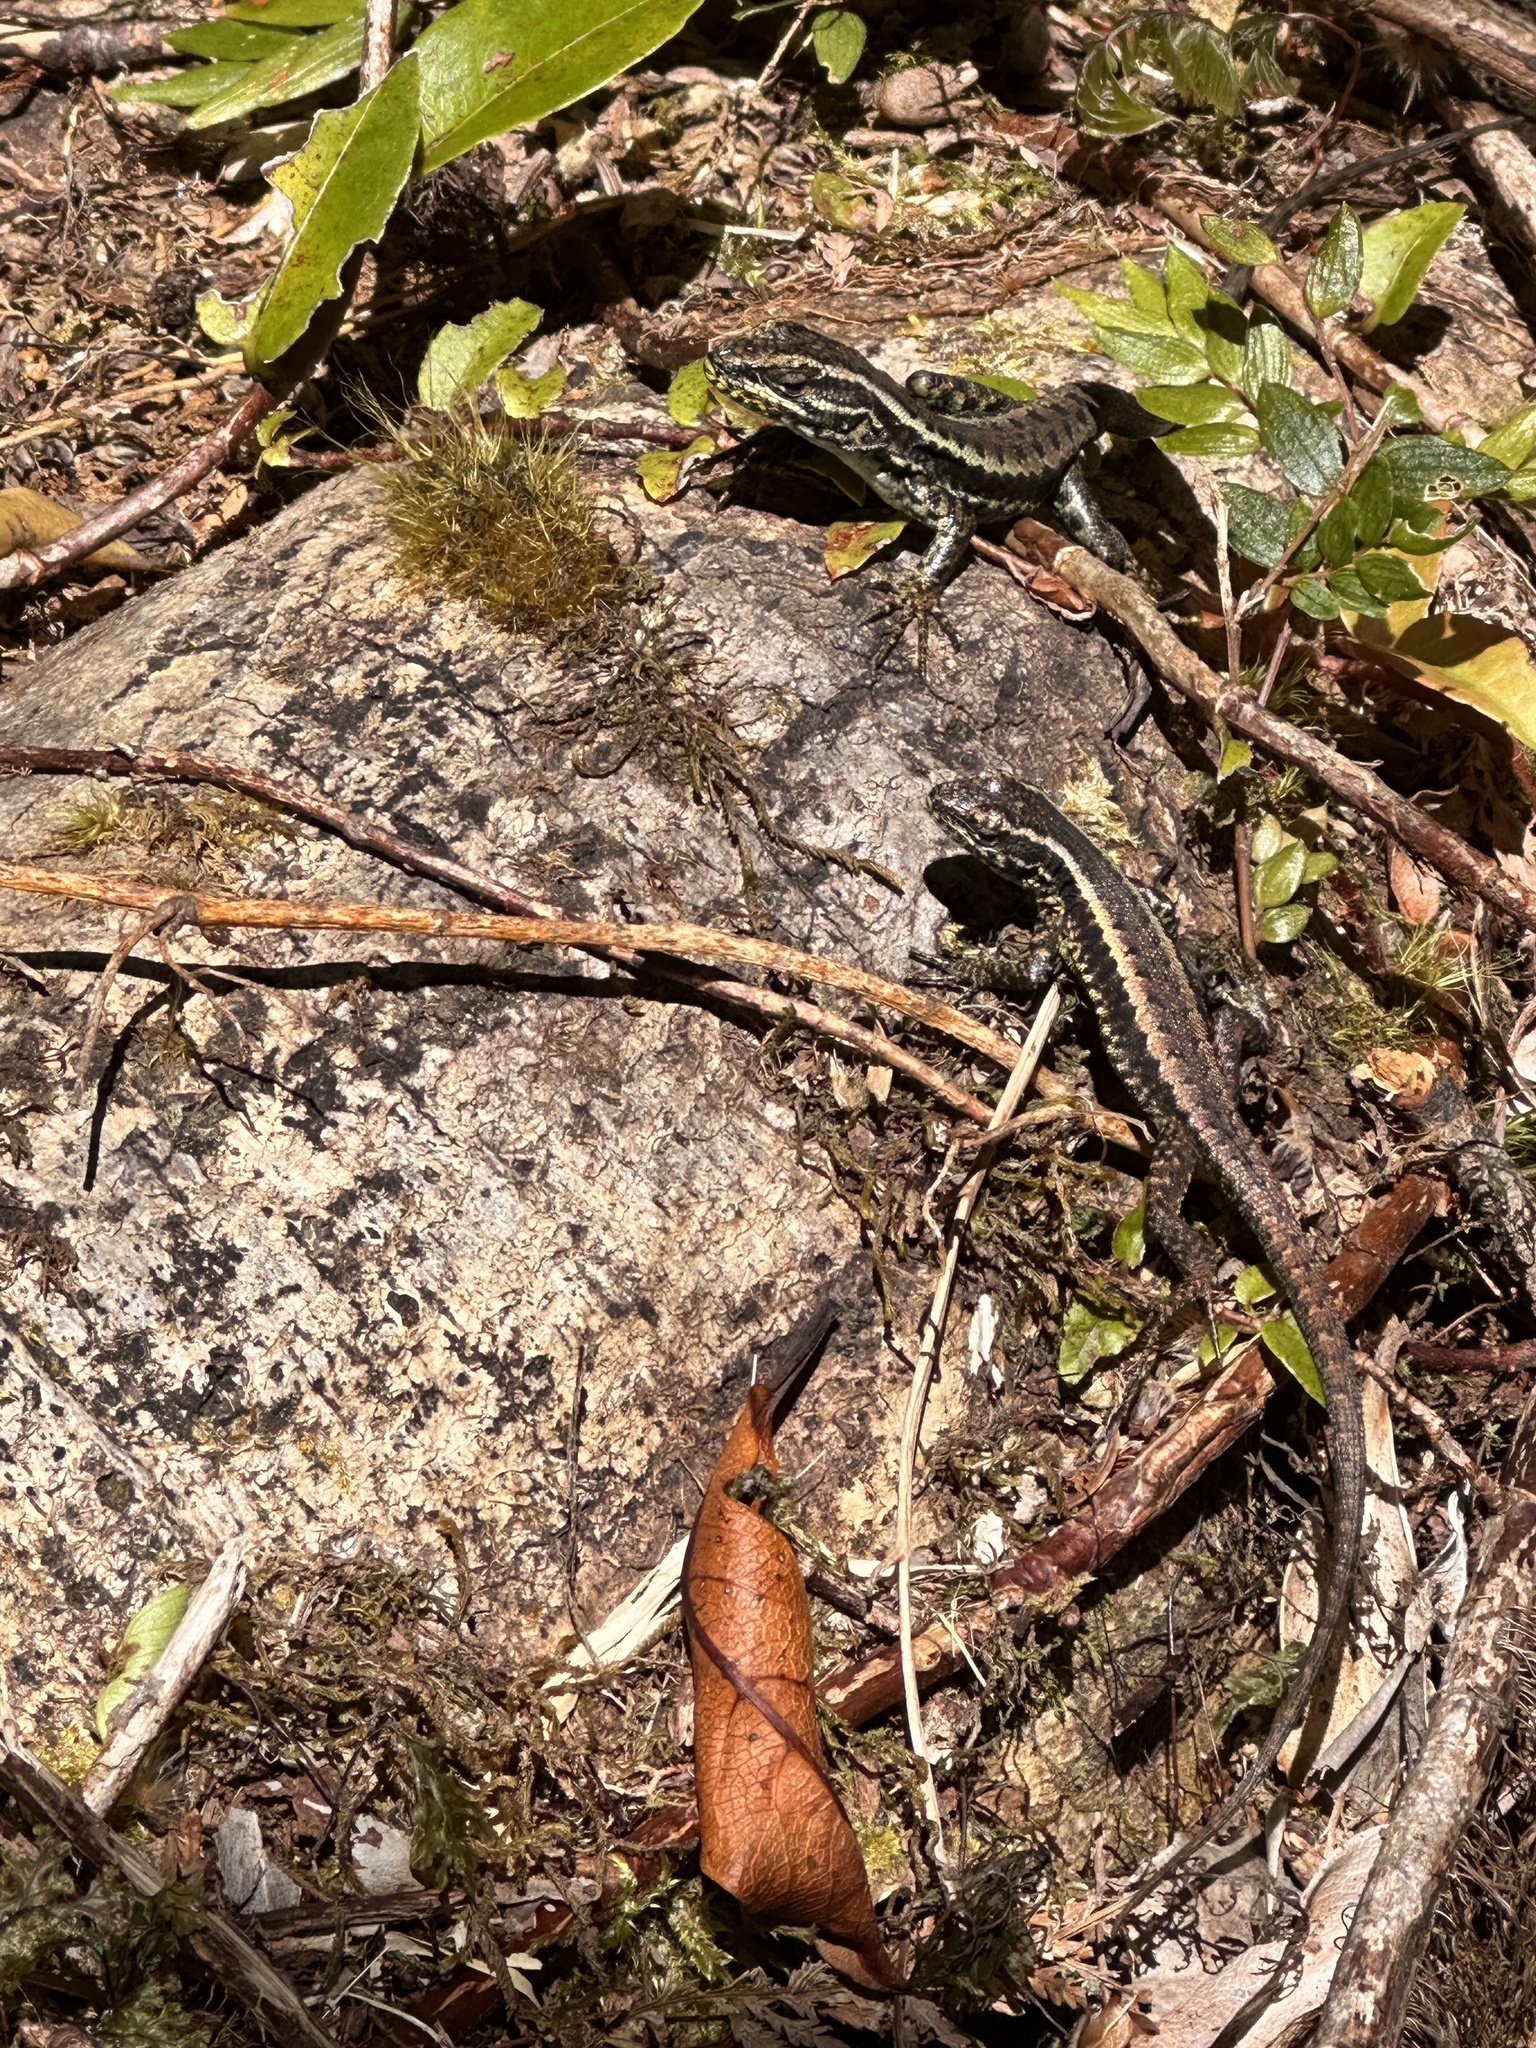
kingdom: Animalia
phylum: Chordata
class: Squamata
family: Liolaemidae
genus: Liolaemus
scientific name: Liolaemus pictus
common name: Painted tree iguana
